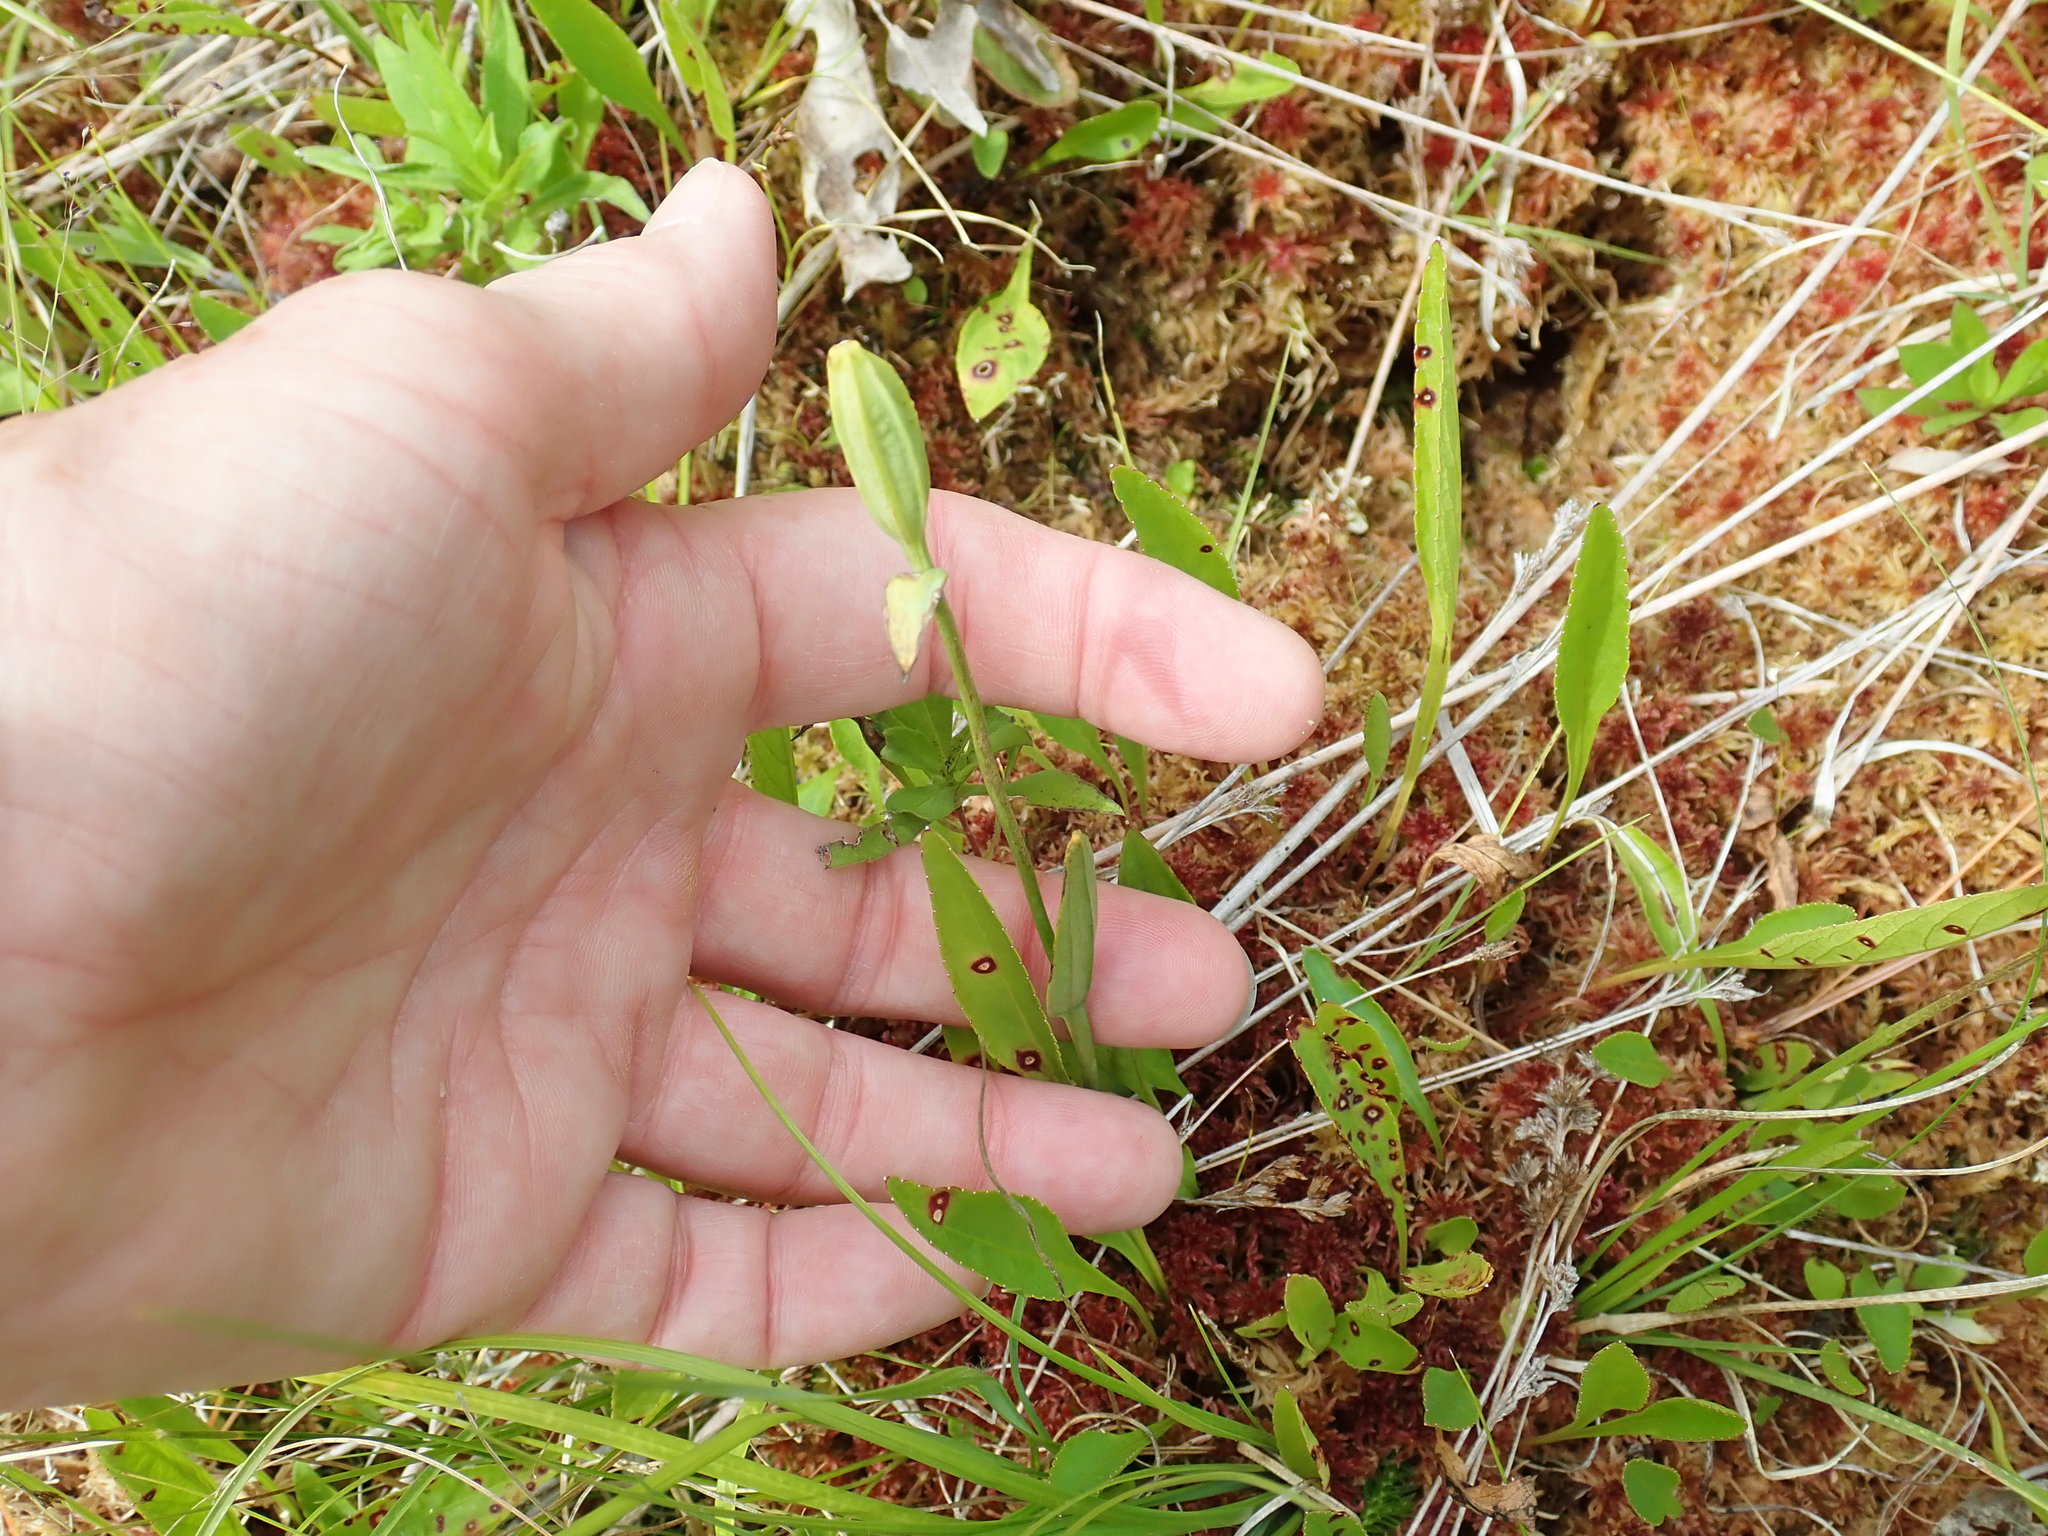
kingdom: Plantae
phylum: Tracheophyta
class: Liliopsida
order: Asparagales
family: Orchidaceae
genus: Pogonia
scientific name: Pogonia ophioglossoides
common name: Rose pogonia
